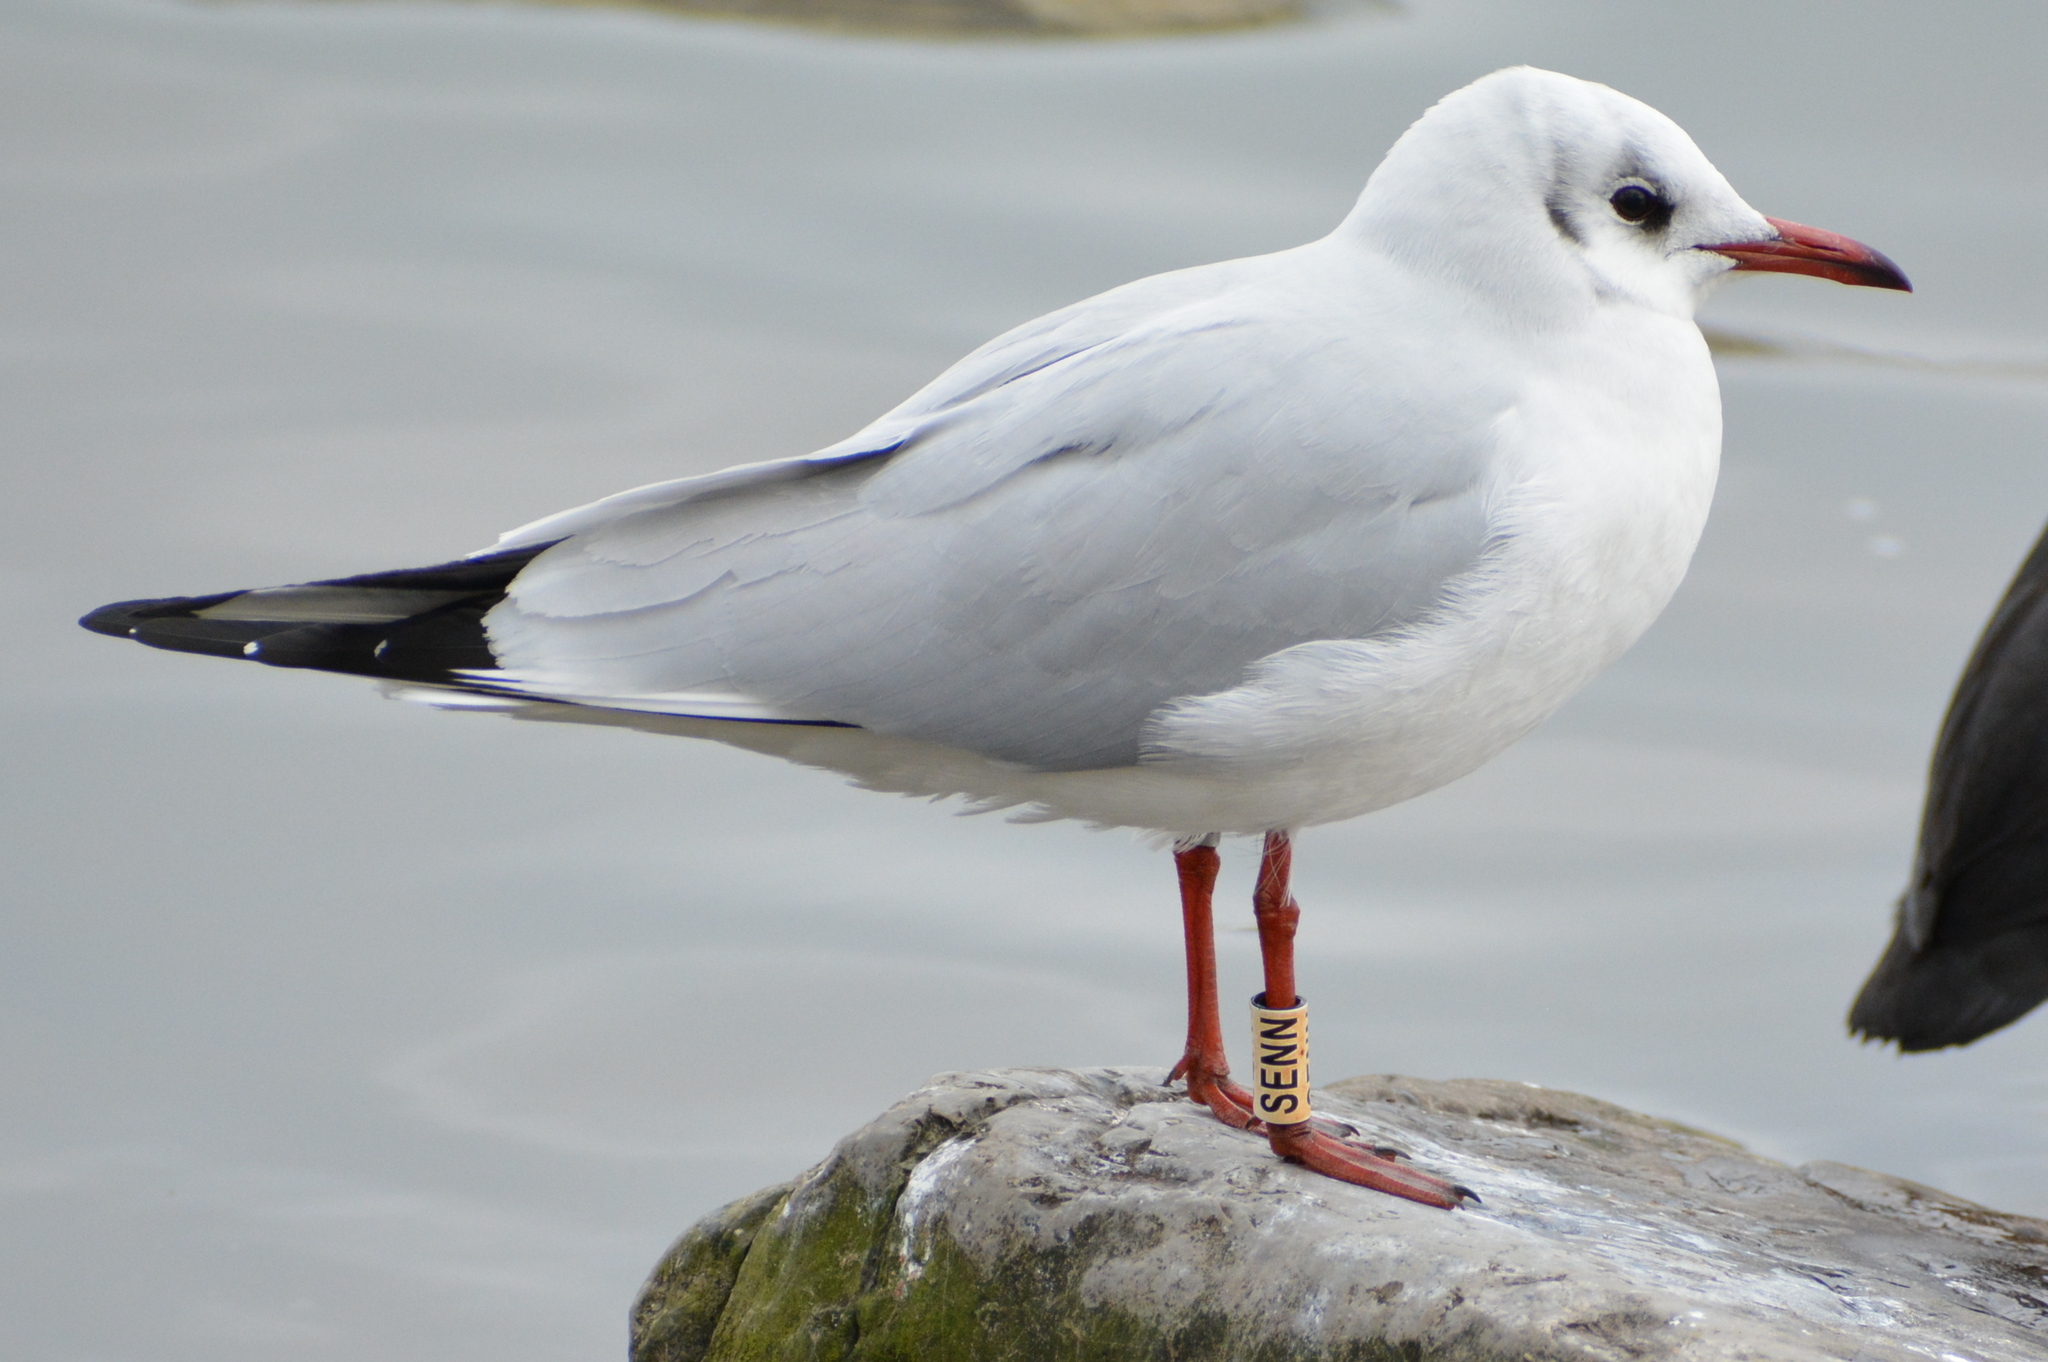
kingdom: Animalia
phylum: Chordata
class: Aves
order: Charadriiformes
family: Laridae
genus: Chroicocephalus
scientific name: Chroicocephalus ridibundus
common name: Black-headed gull
